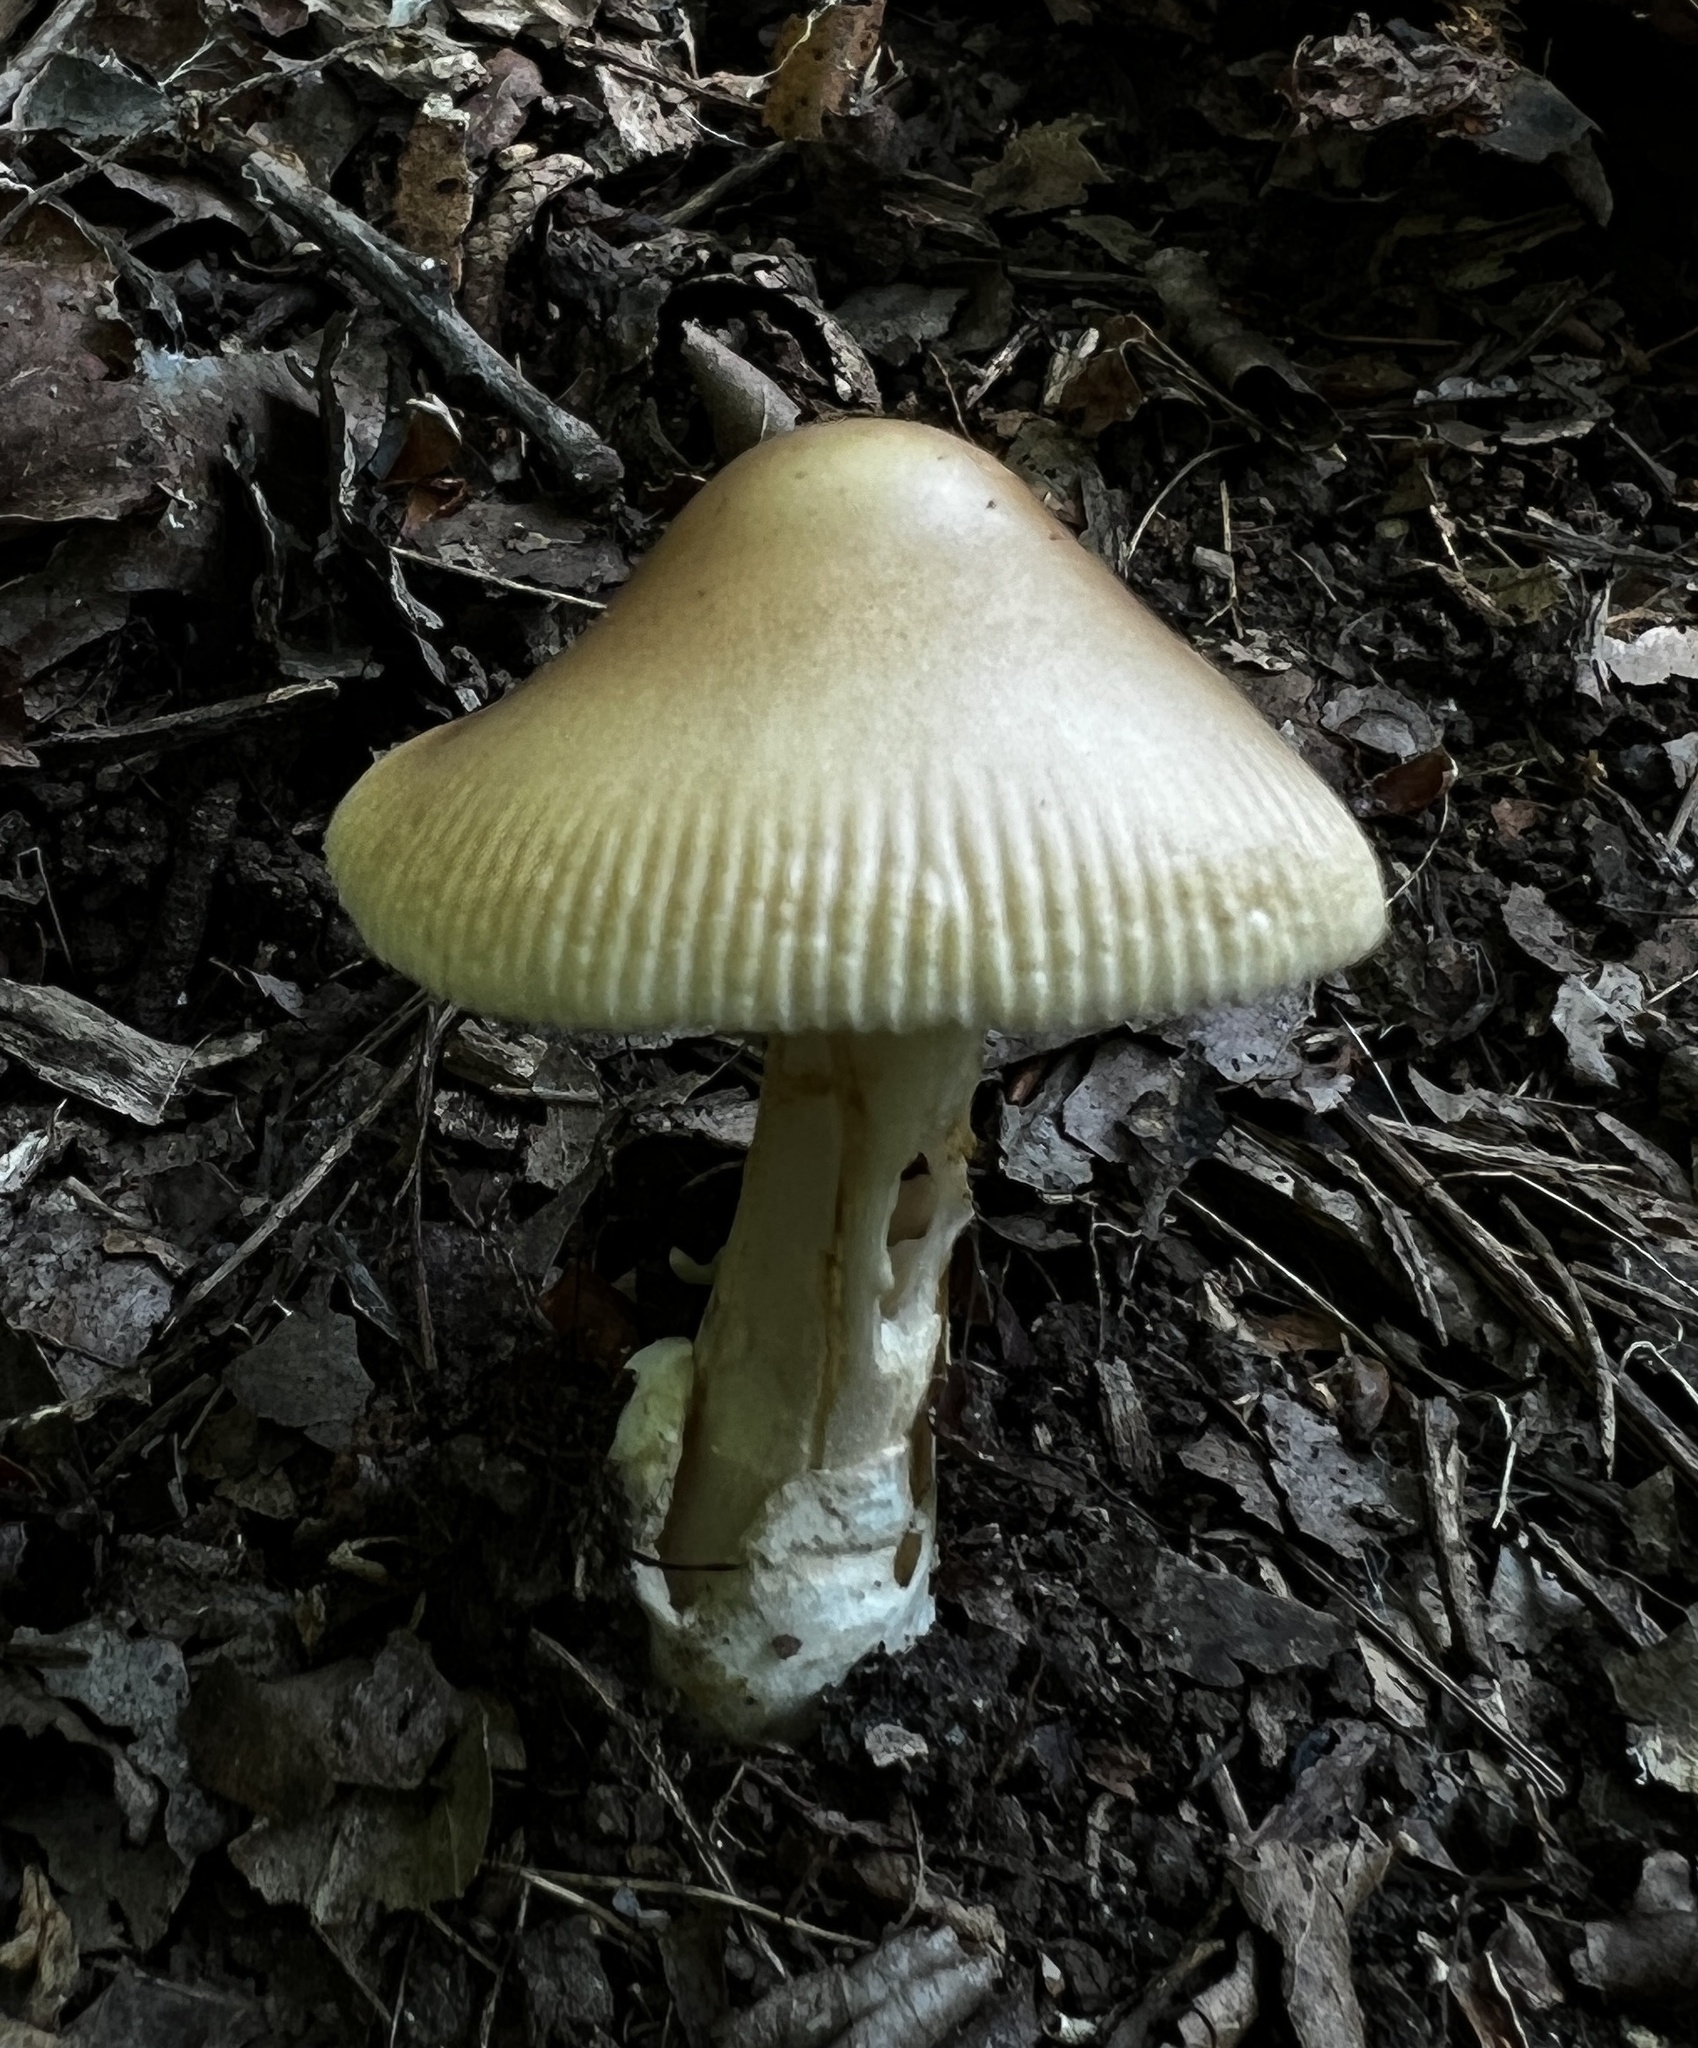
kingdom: Fungi
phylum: Basidiomycota
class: Agaricomycetes
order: Agaricales
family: Amanitaceae
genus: Amanita
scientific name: Amanita fulva
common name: Tawny grisette
